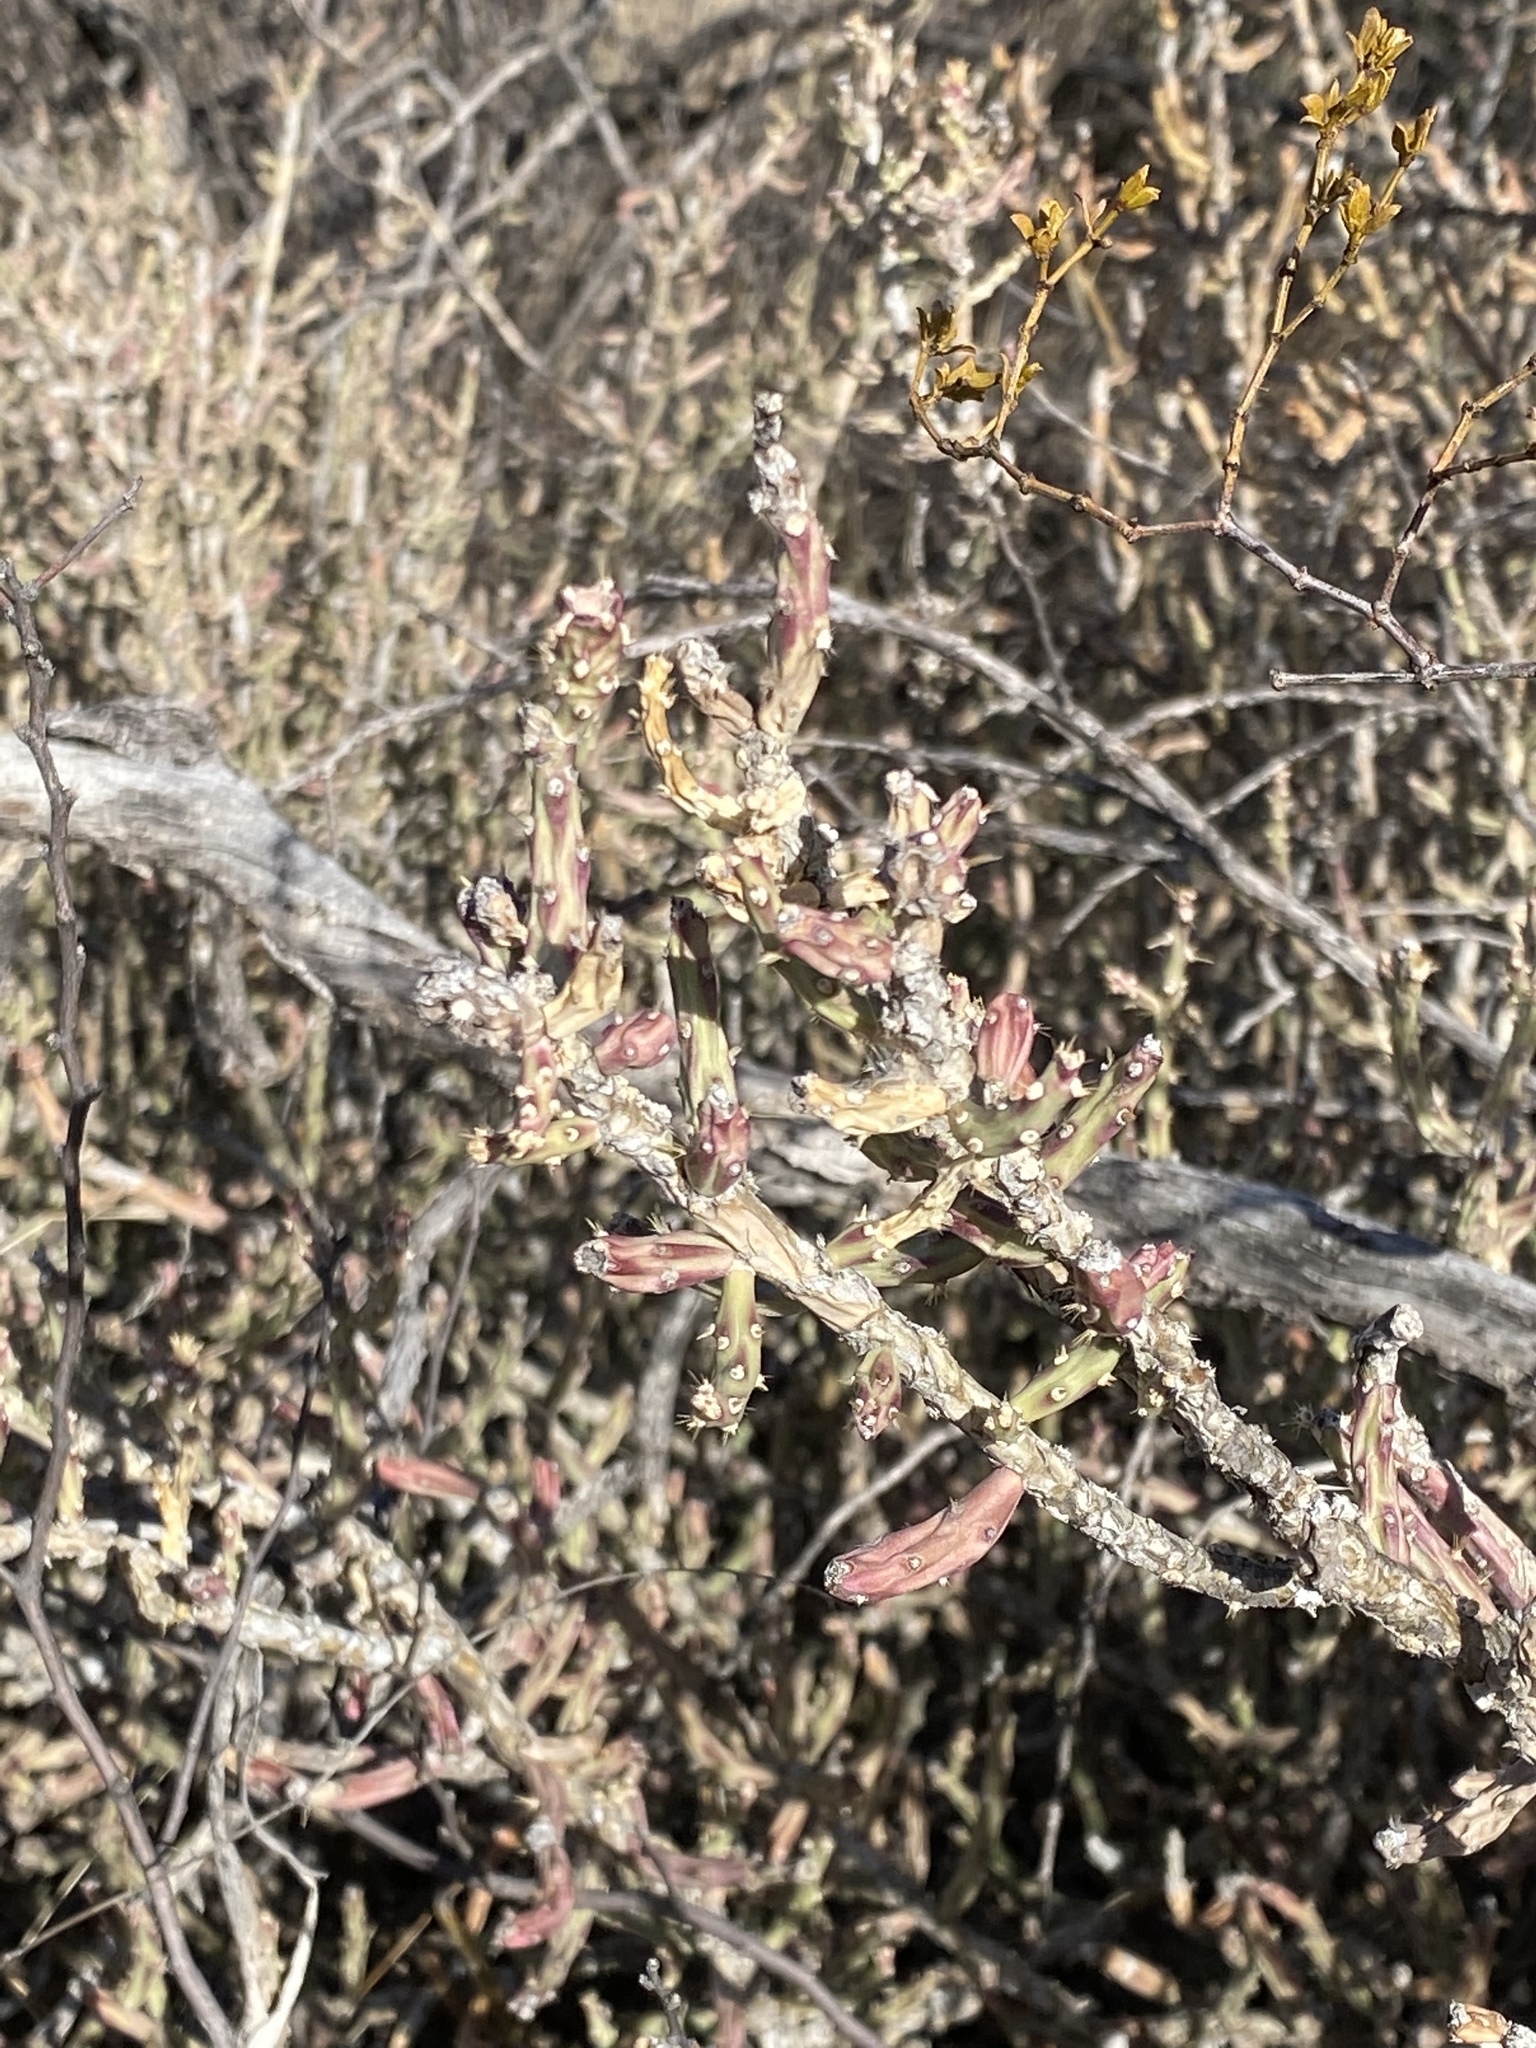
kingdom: Plantae
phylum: Tracheophyta
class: Magnoliopsida
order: Caryophyllales
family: Cactaceae
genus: Cylindropuntia
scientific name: Cylindropuntia leptocaulis
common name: Christmas cactus
